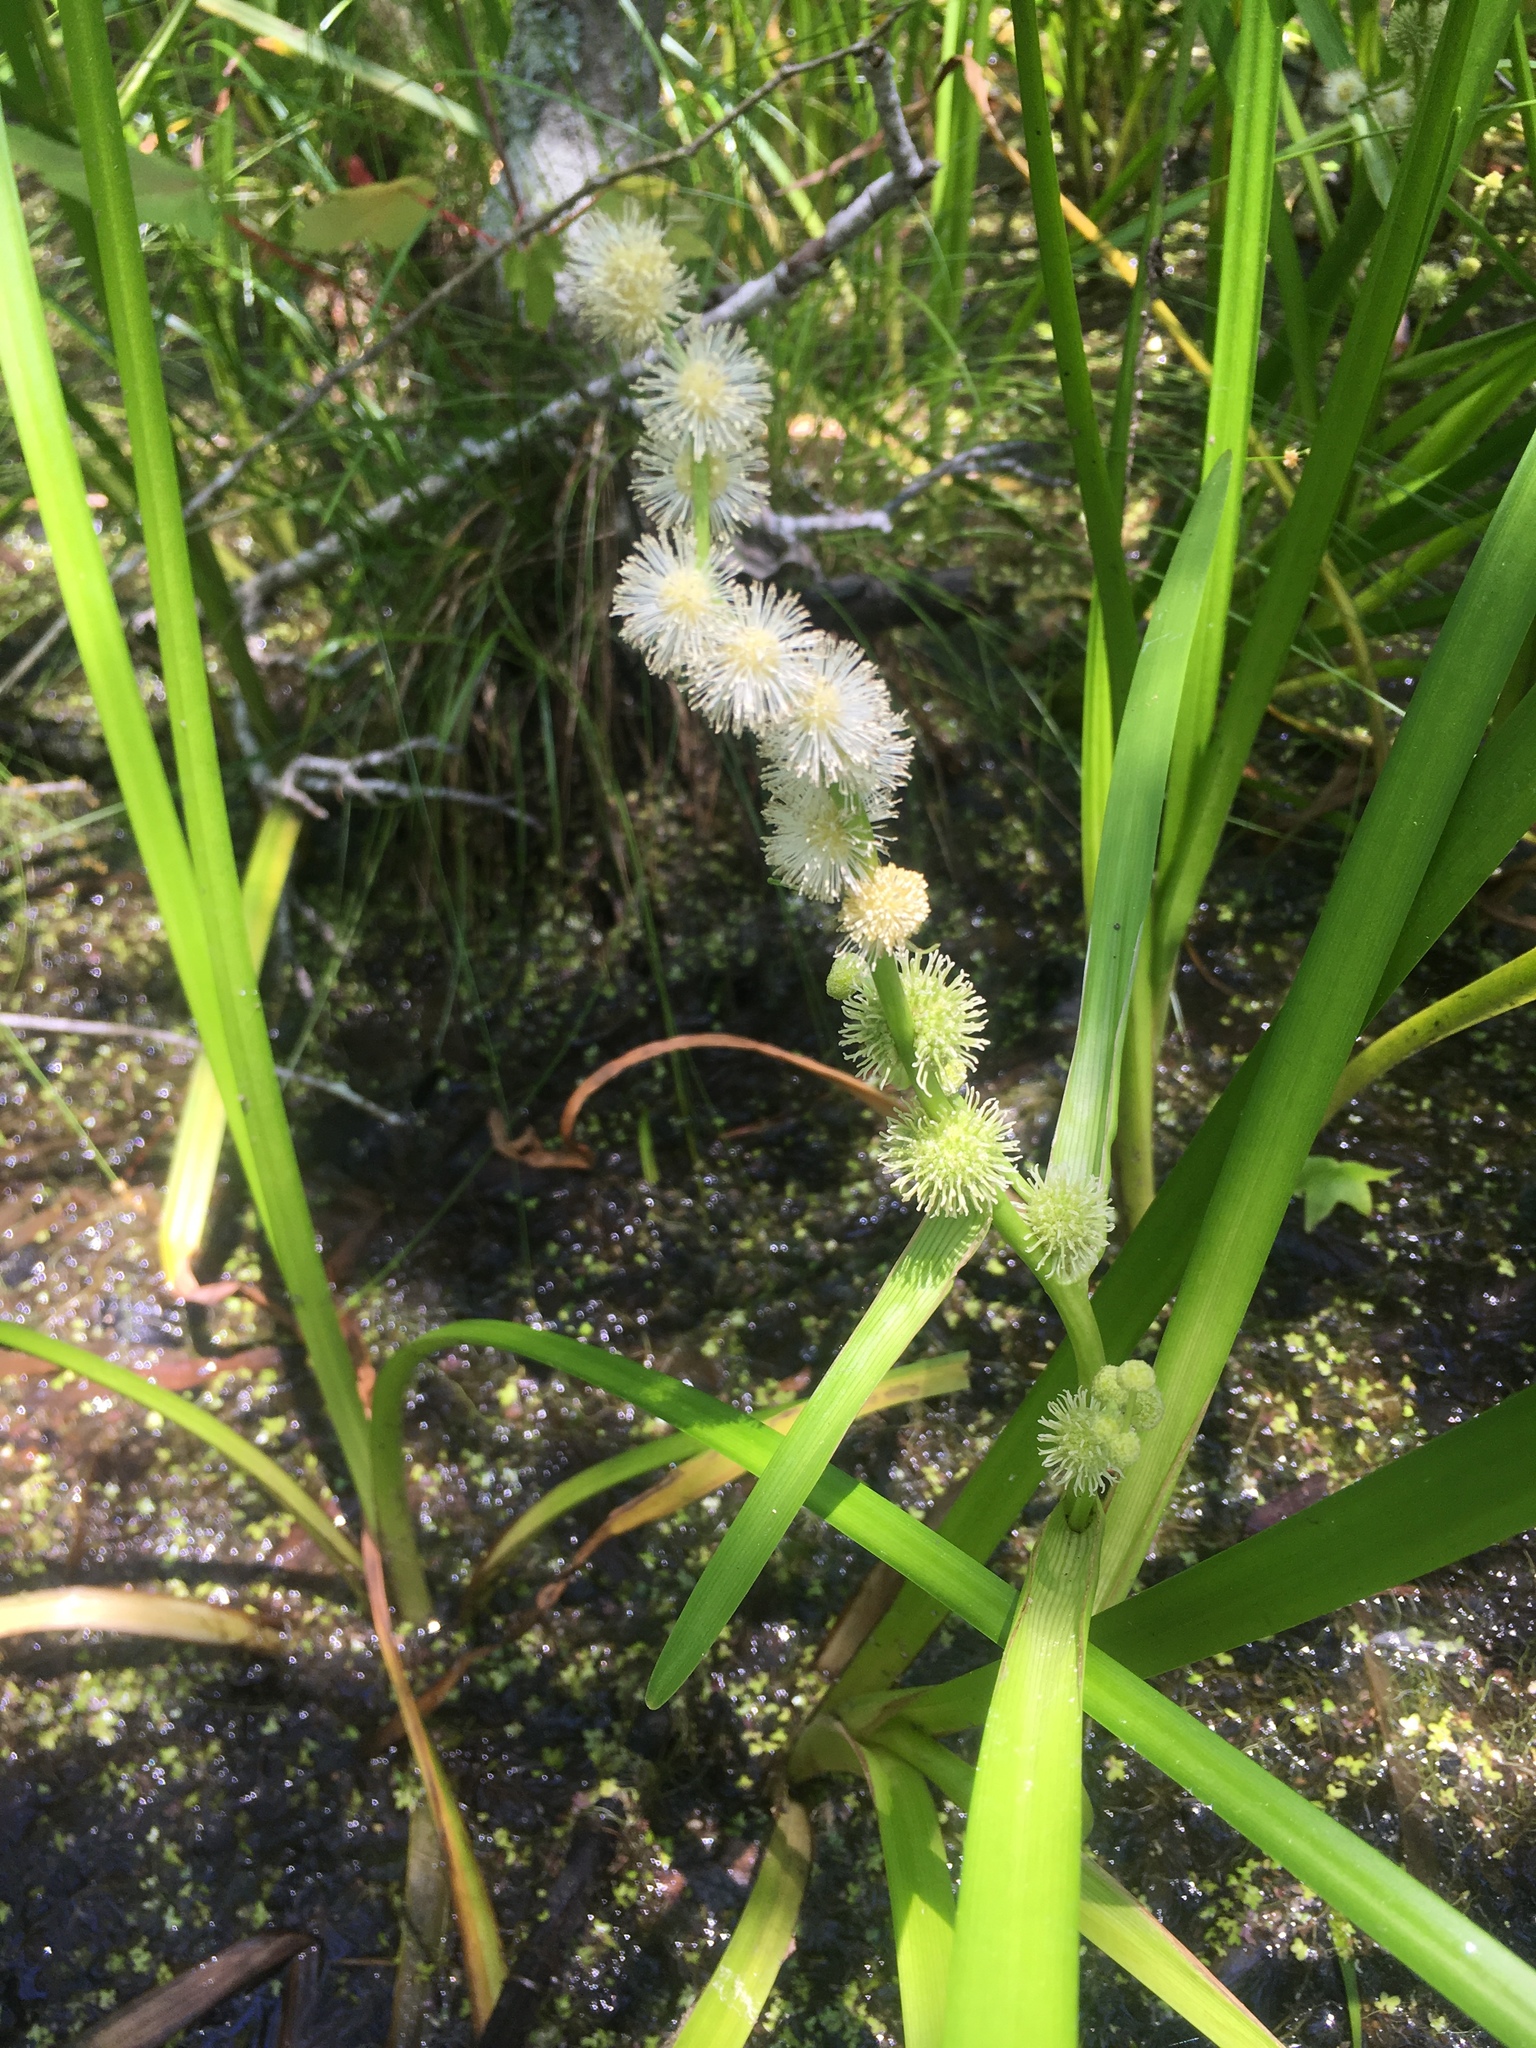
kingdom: Plantae
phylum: Tracheophyta
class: Liliopsida
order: Poales
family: Typhaceae
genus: Sparganium
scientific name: Sparganium americanum
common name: American burreed
